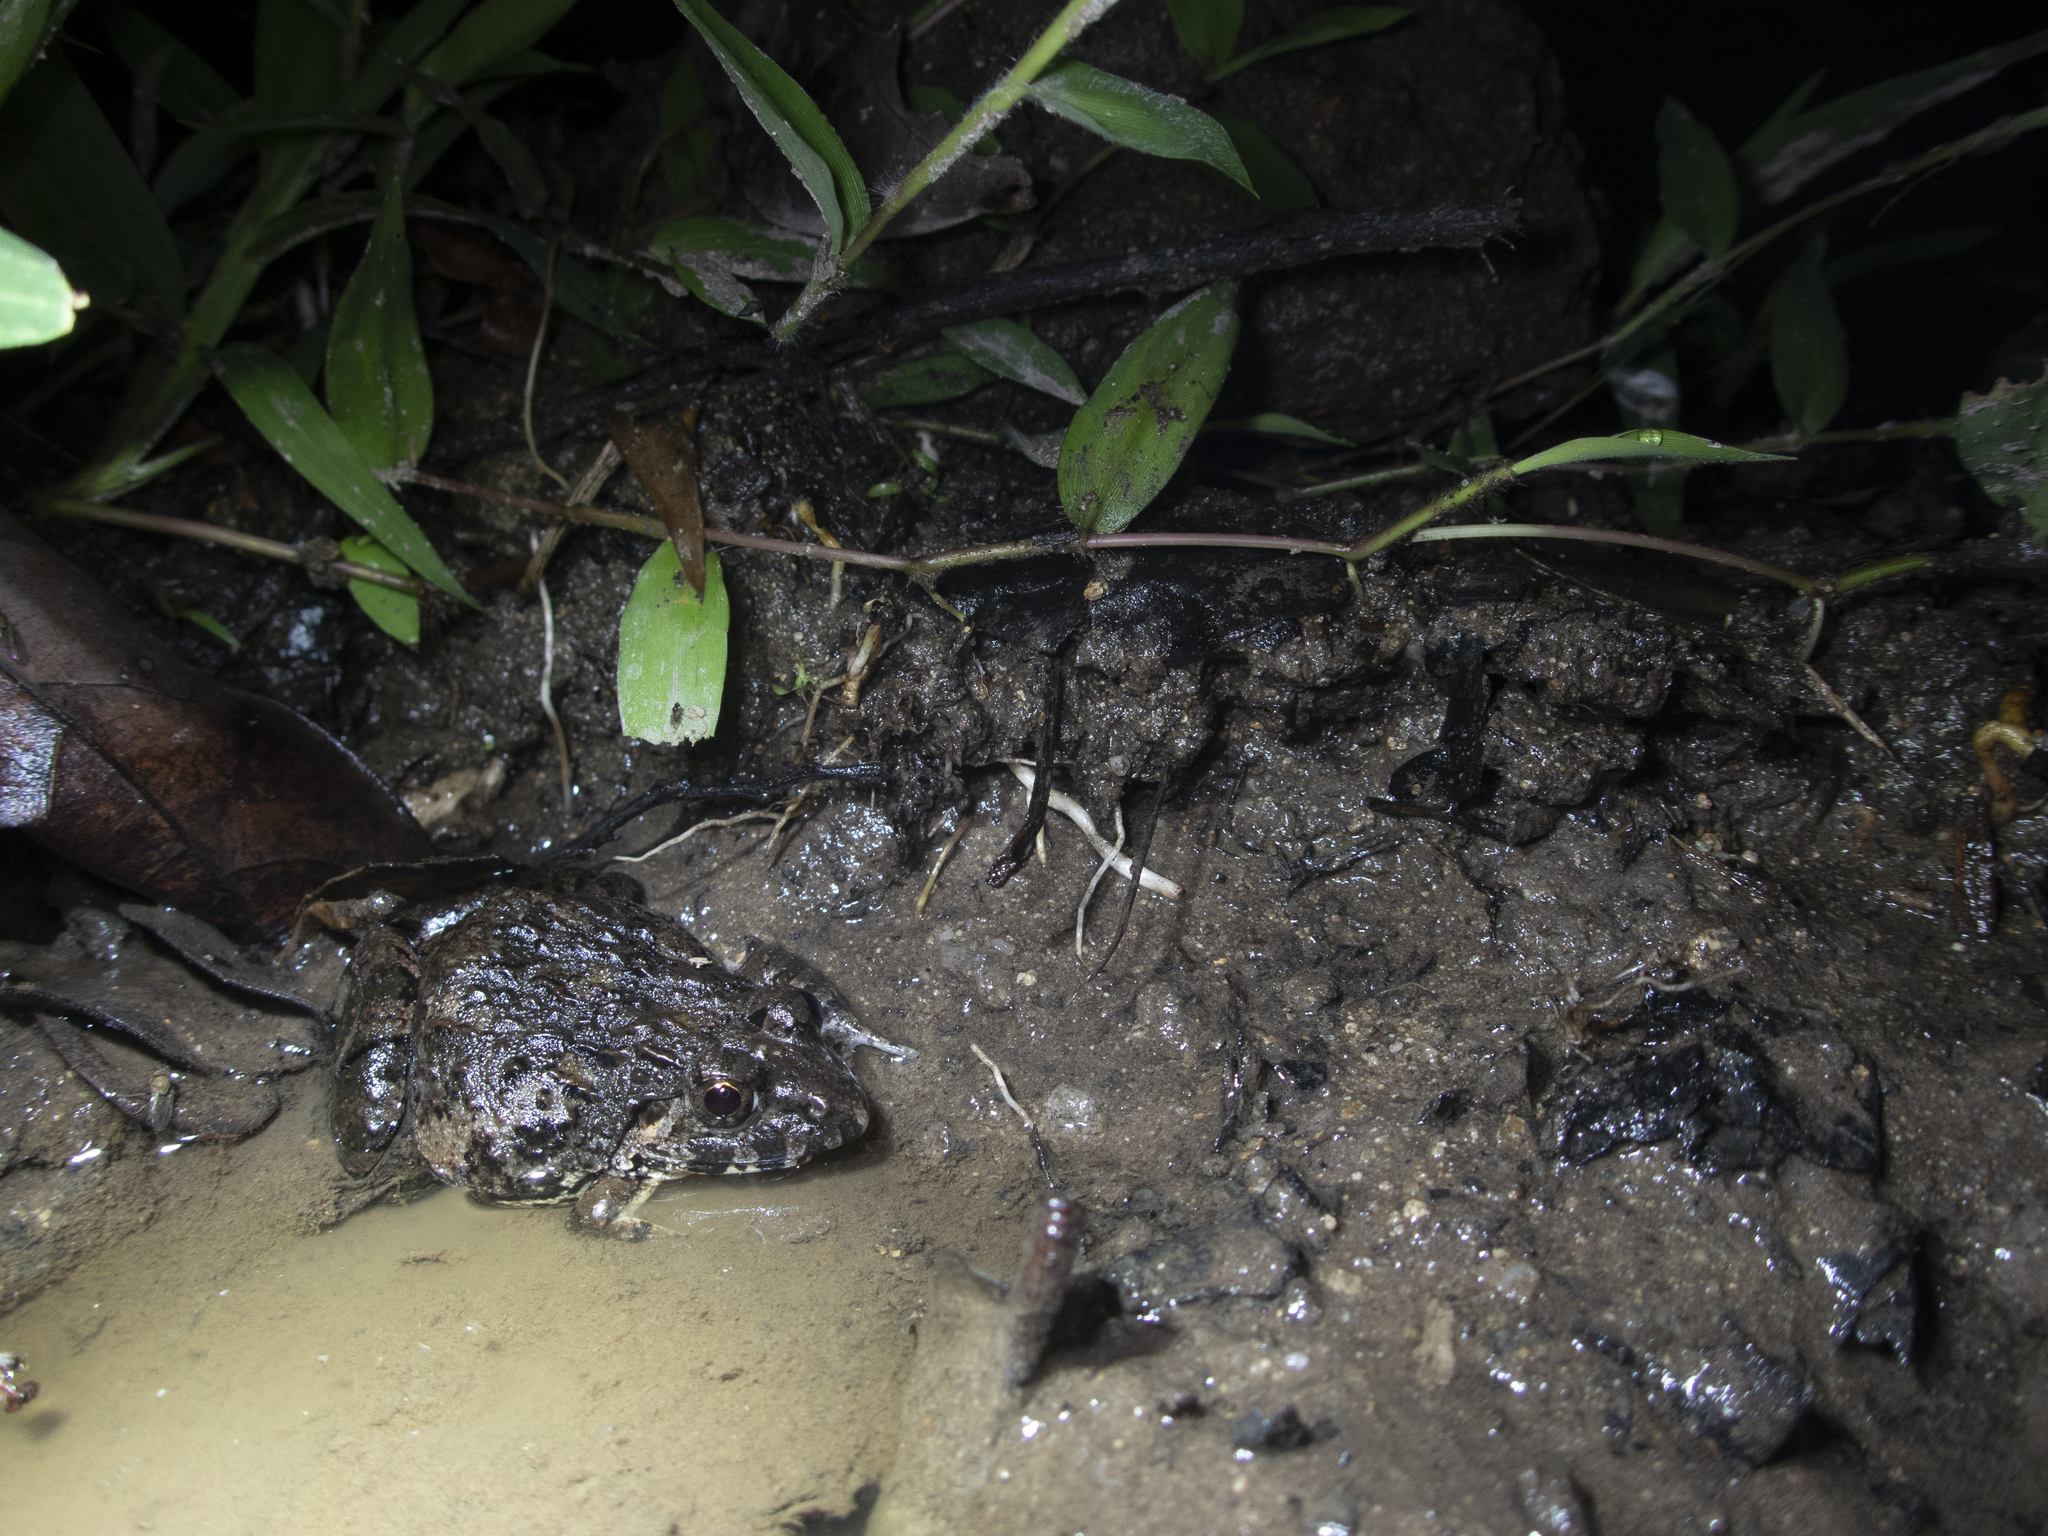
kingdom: Animalia
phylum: Chordata
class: Amphibia
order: Anura
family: Dicroglossidae
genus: Fejervarya
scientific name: Fejervarya multistriata
